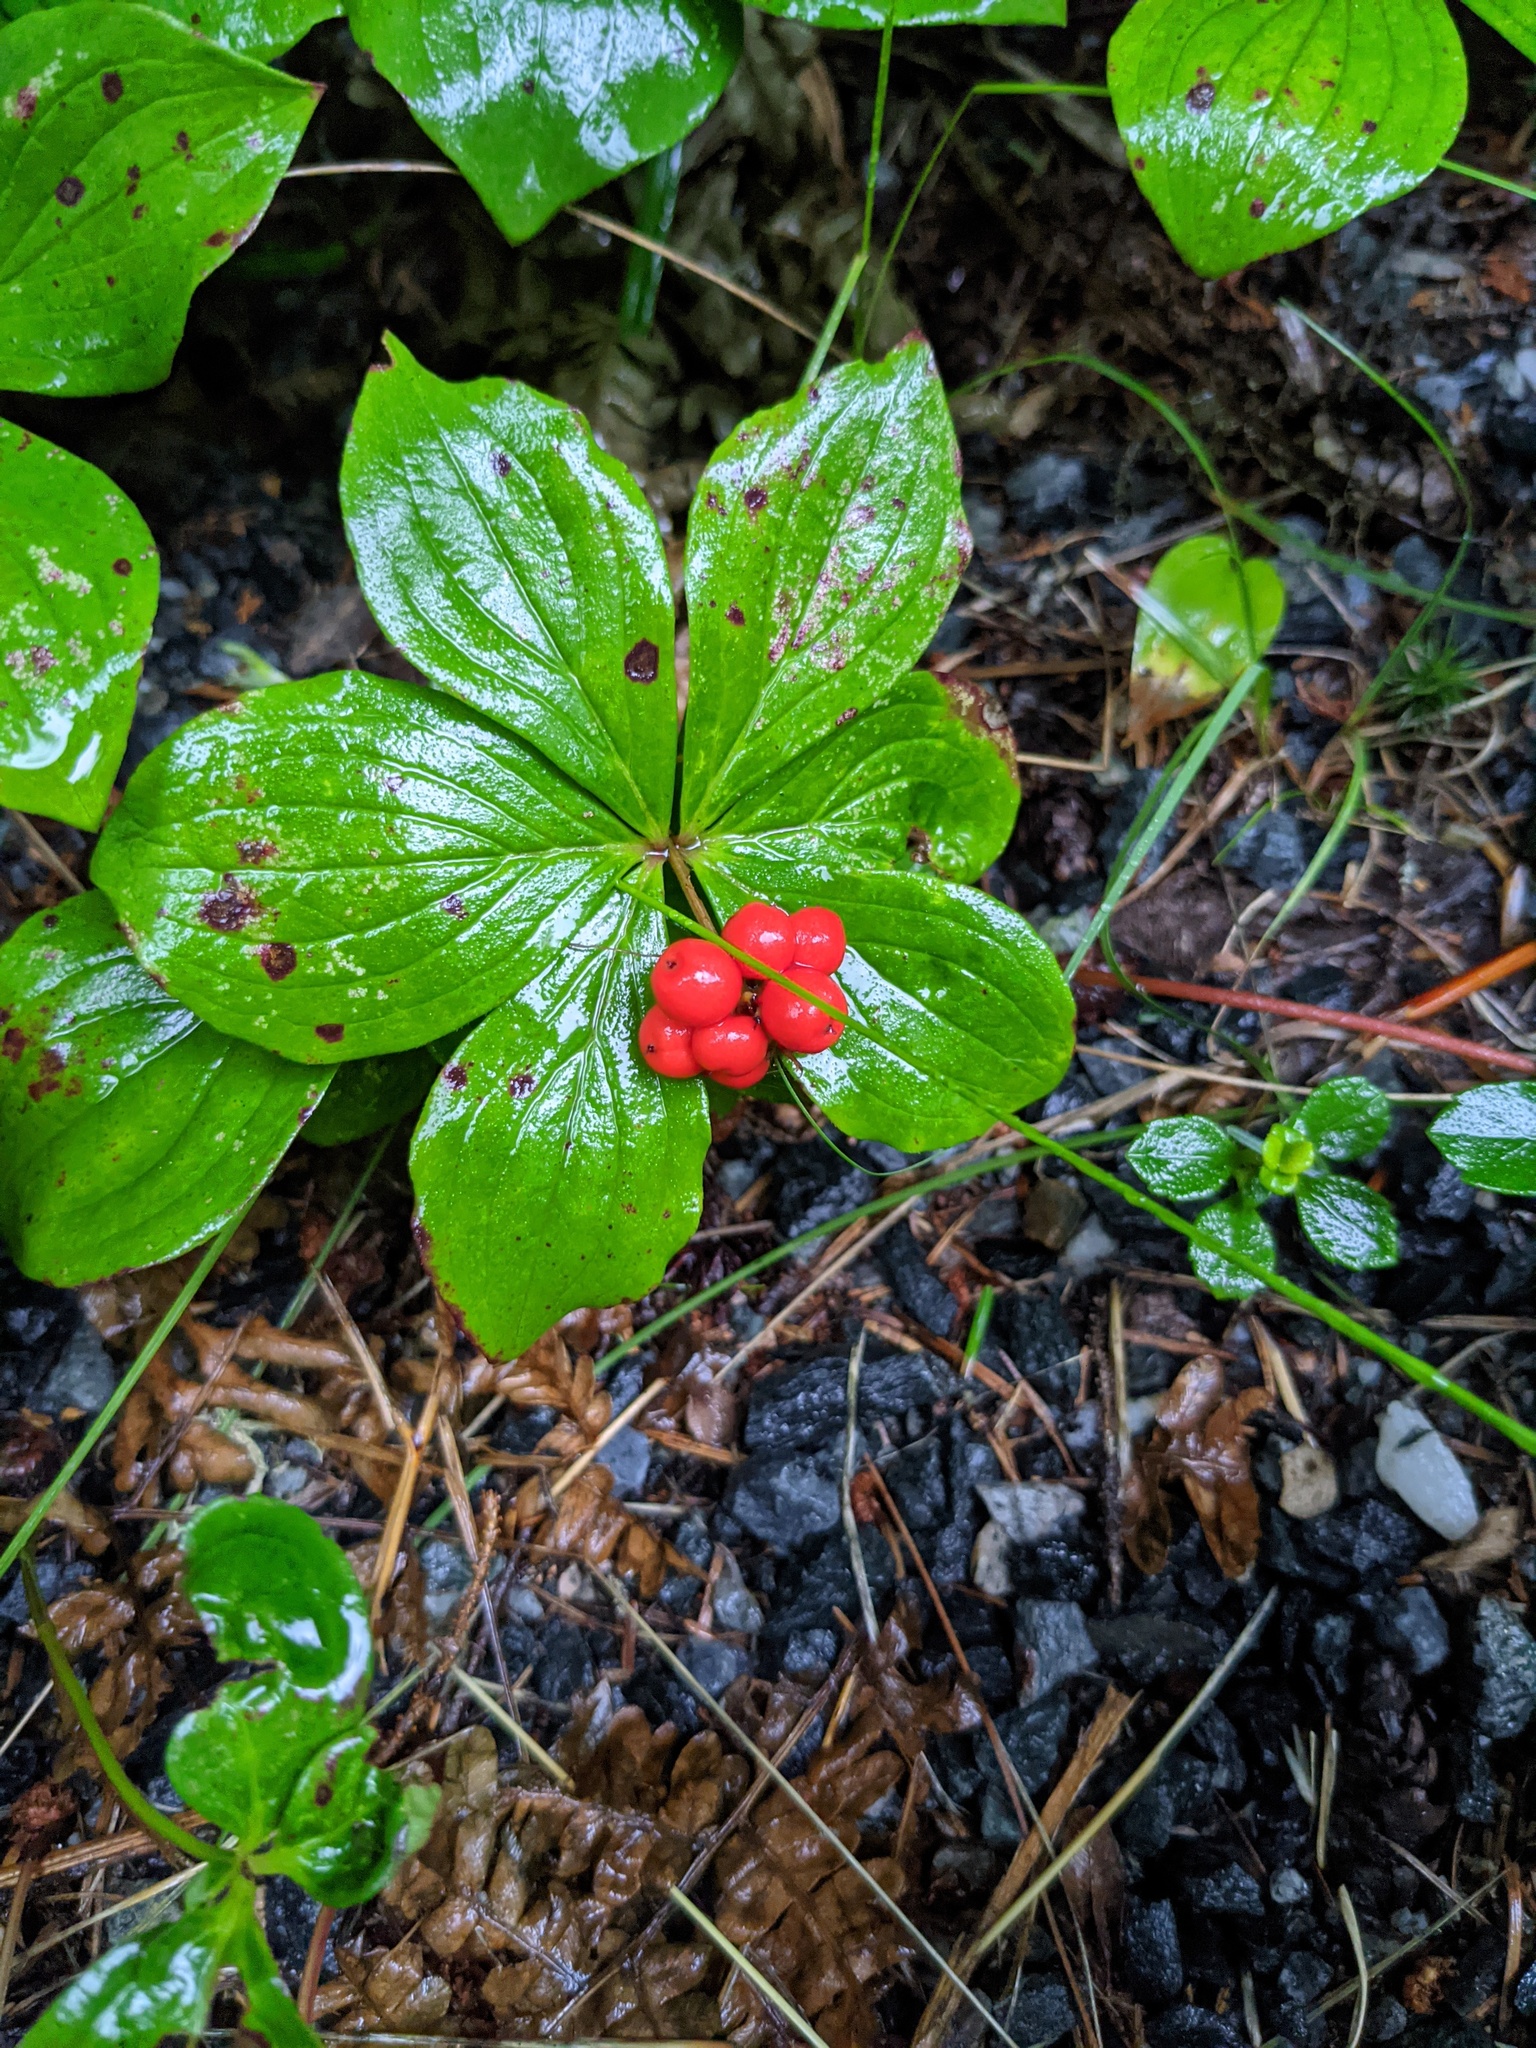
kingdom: Plantae
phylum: Tracheophyta
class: Magnoliopsida
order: Cornales
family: Cornaceae
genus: Cornus
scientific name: Cornus canadensis
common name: Creeping dogwood
